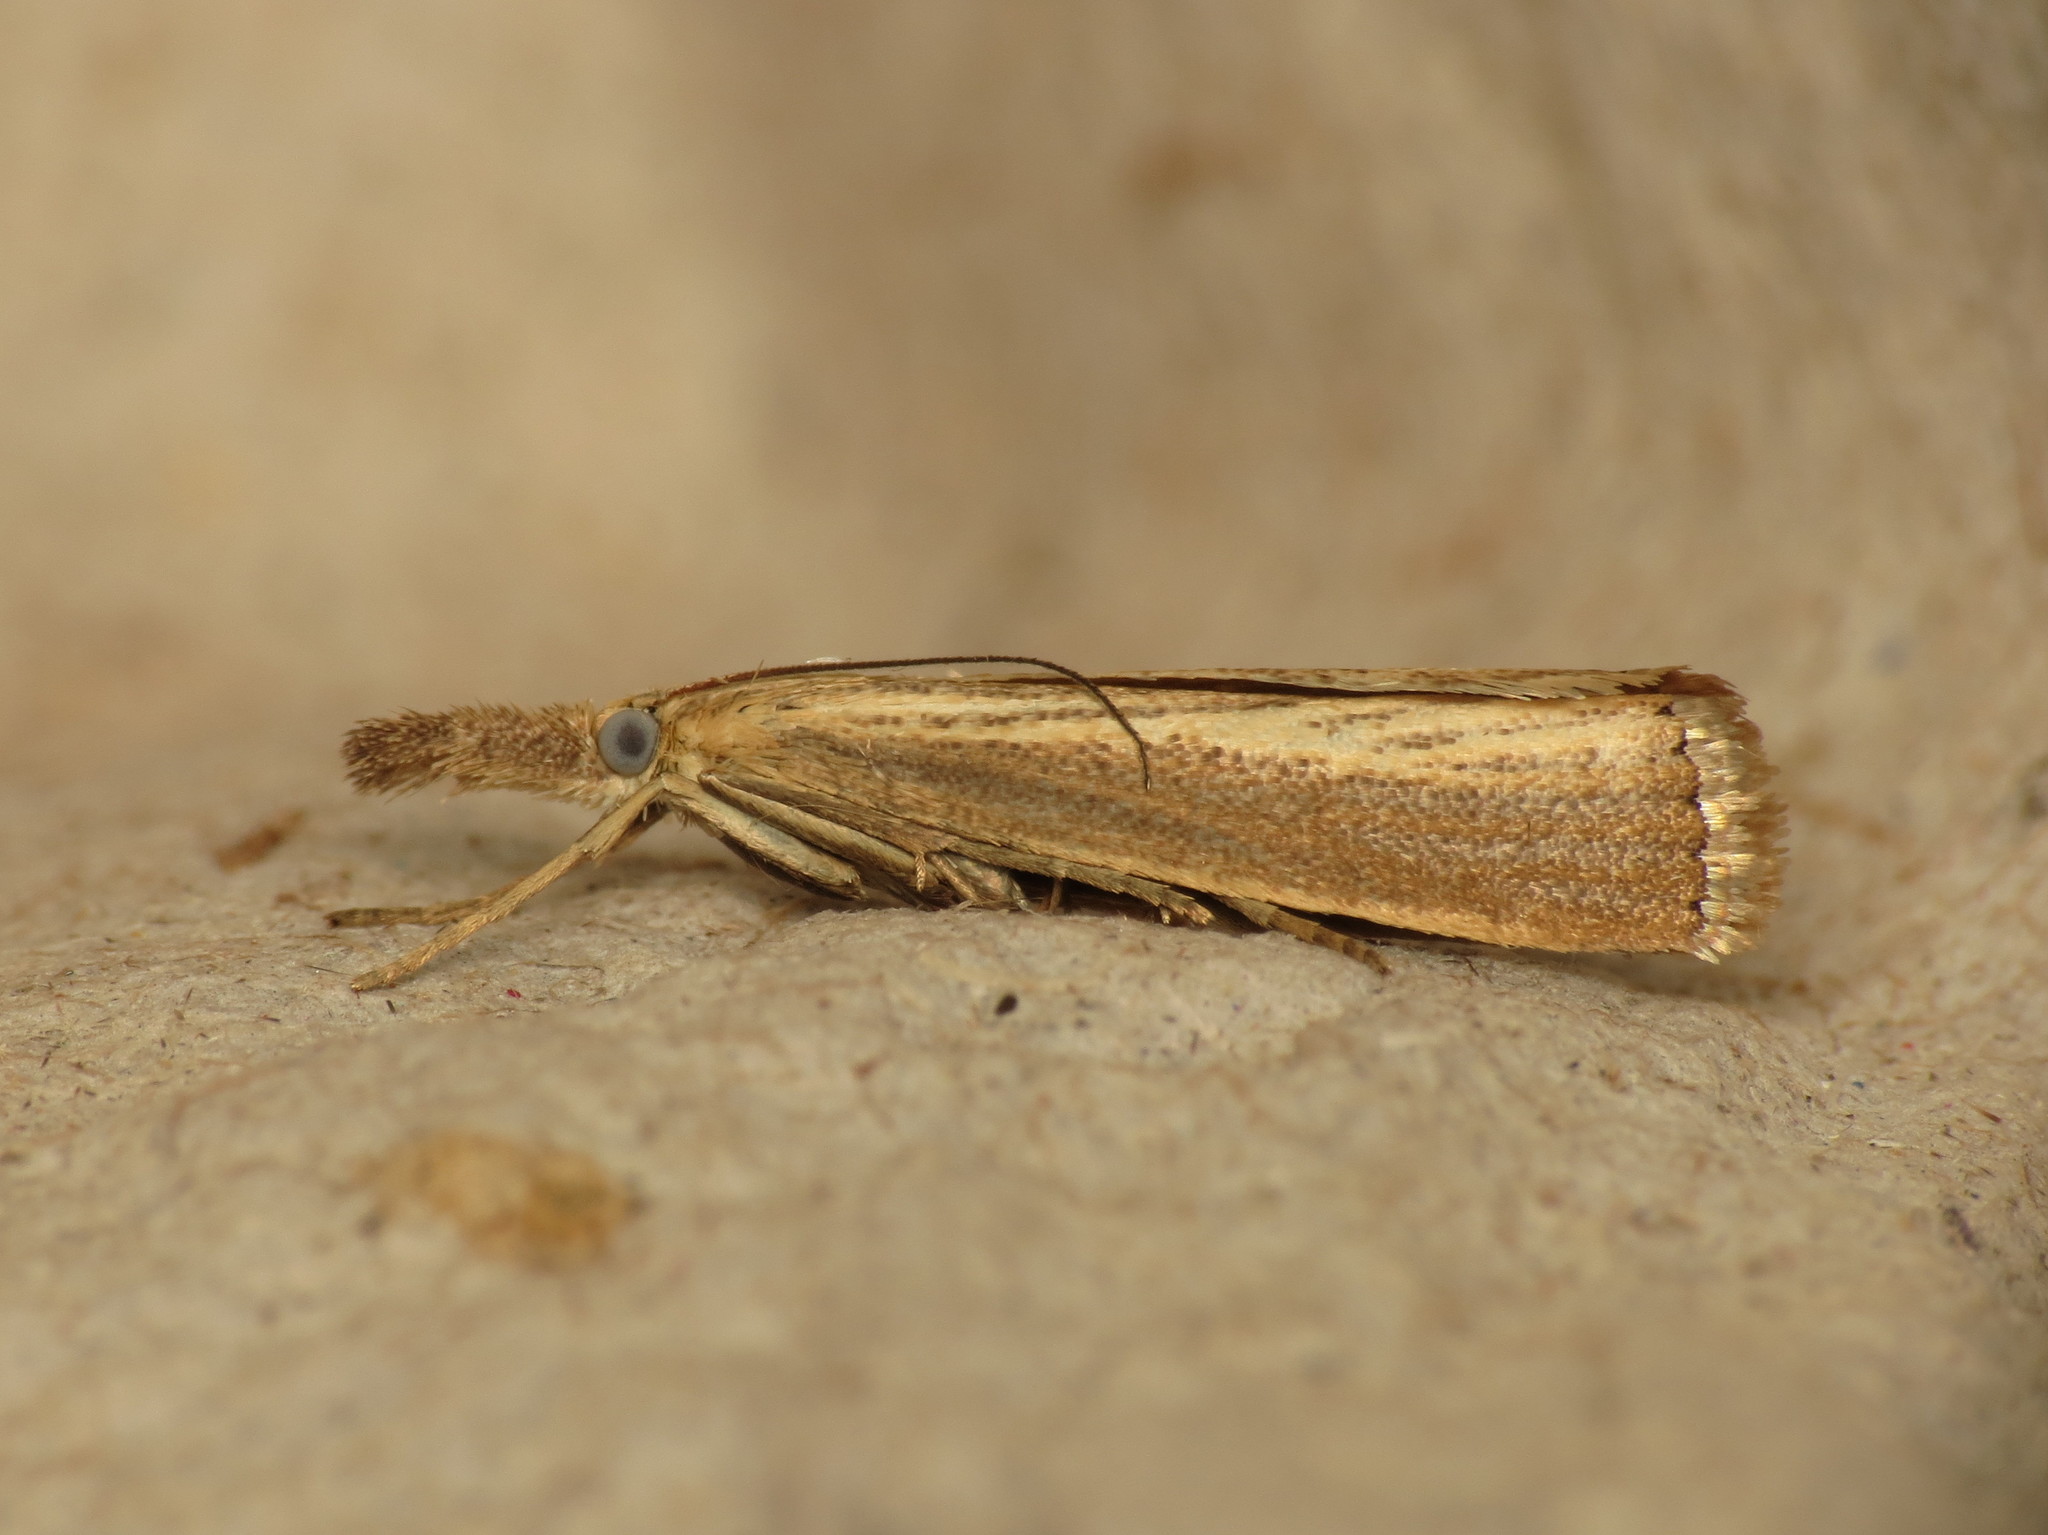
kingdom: Animalia
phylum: Arthropoda
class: Insecta
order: Lepidoptera
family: Crambidae
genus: Agriphila
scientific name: Agriphila straminella
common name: Straw grass-veneer
